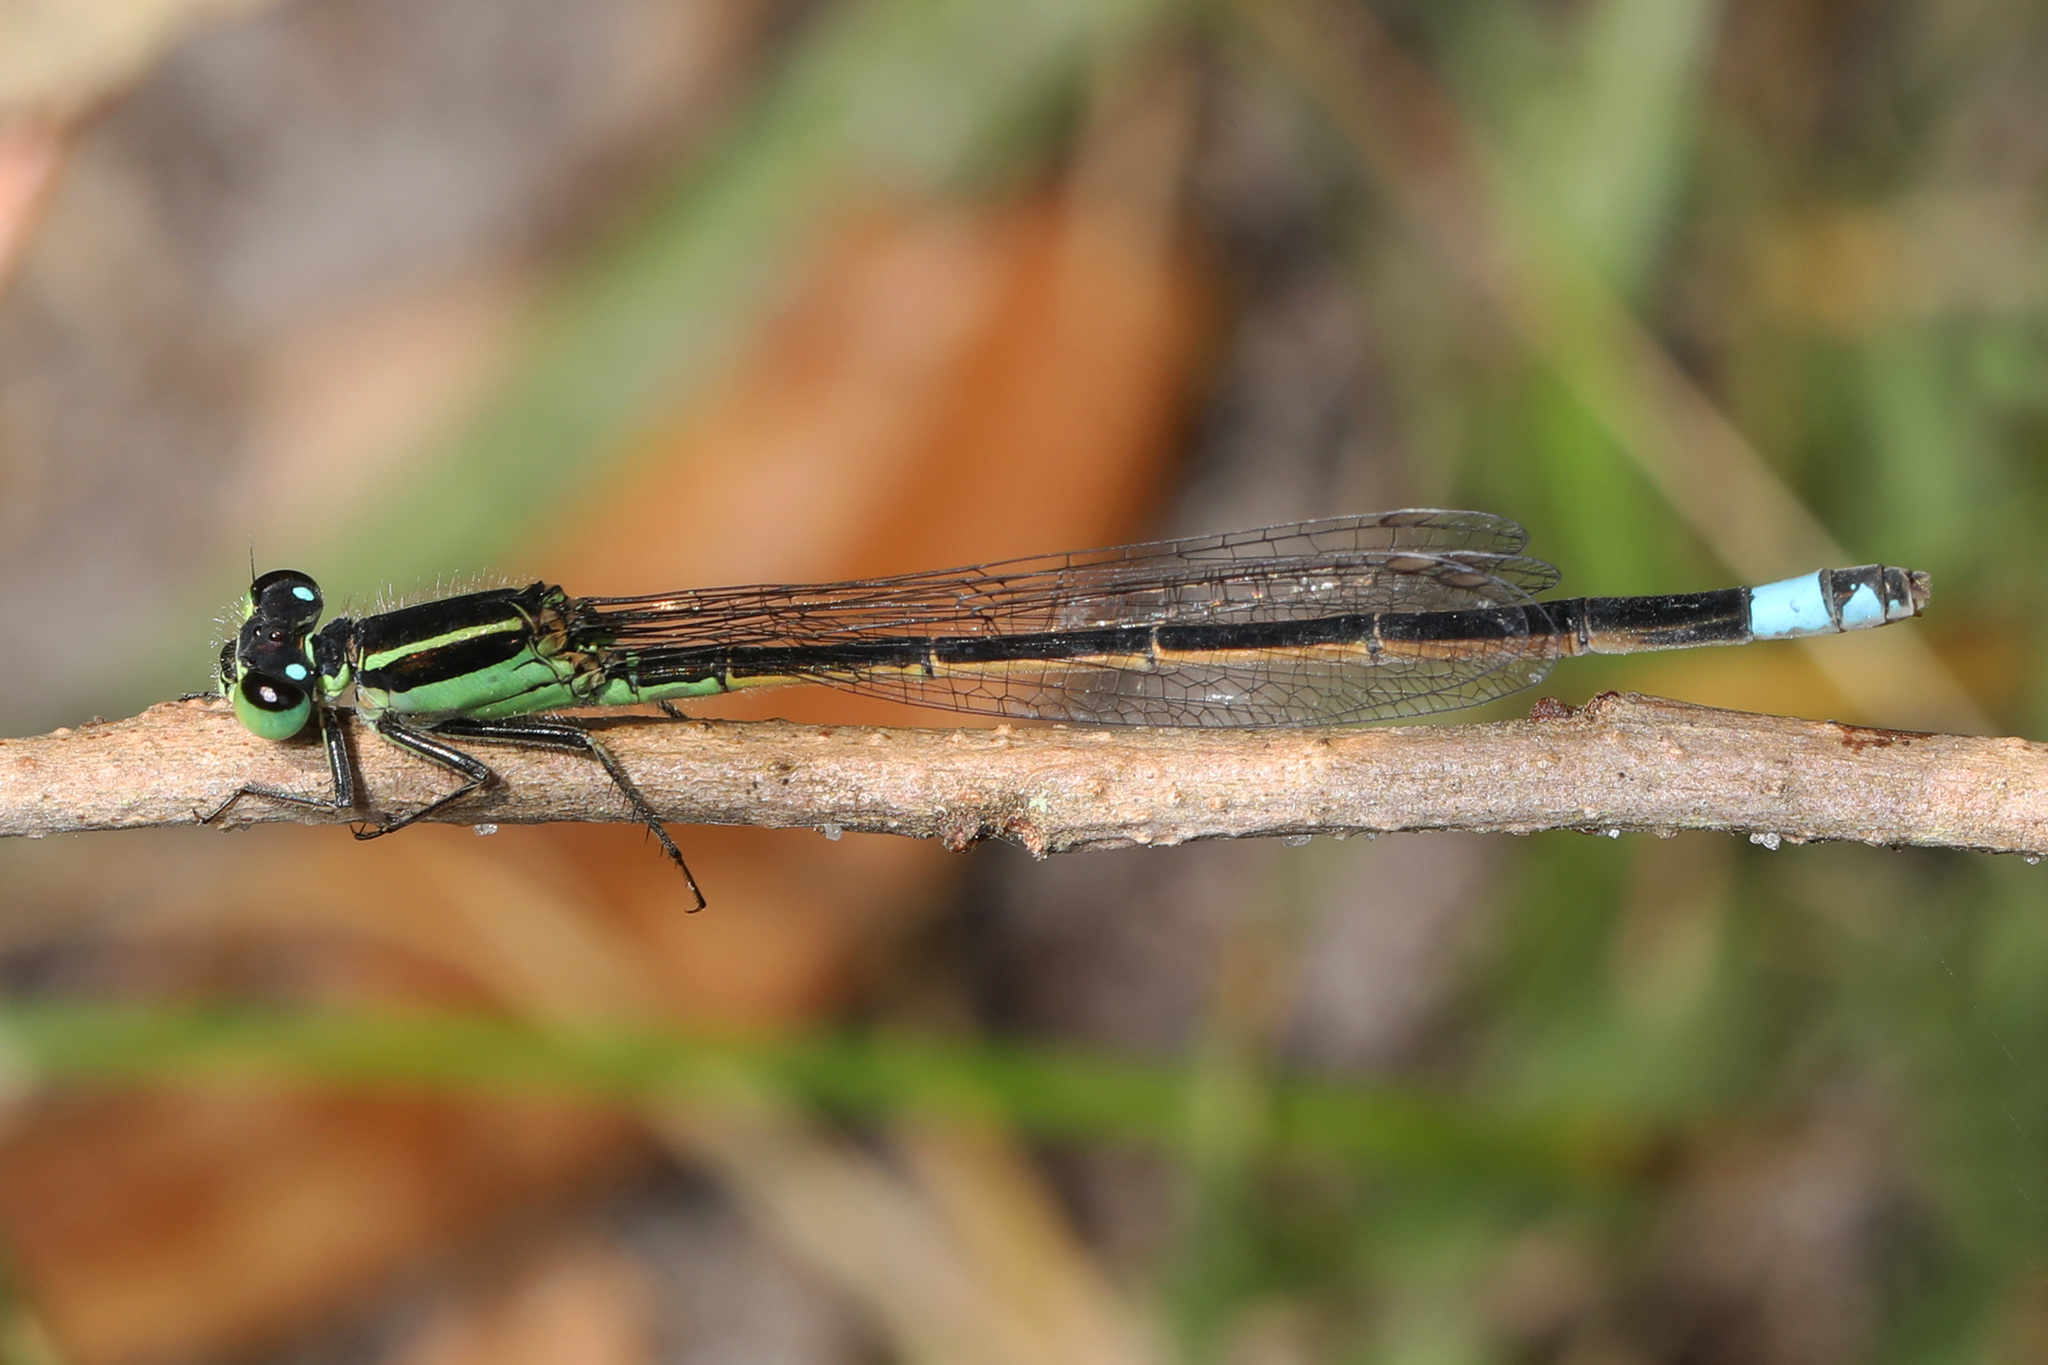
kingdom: Animalia
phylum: Arthropoda
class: Insecta
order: Odonata
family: Coenagrionidae
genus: Ischnura
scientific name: Ischnura ramburii
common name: Rambur's forktail
